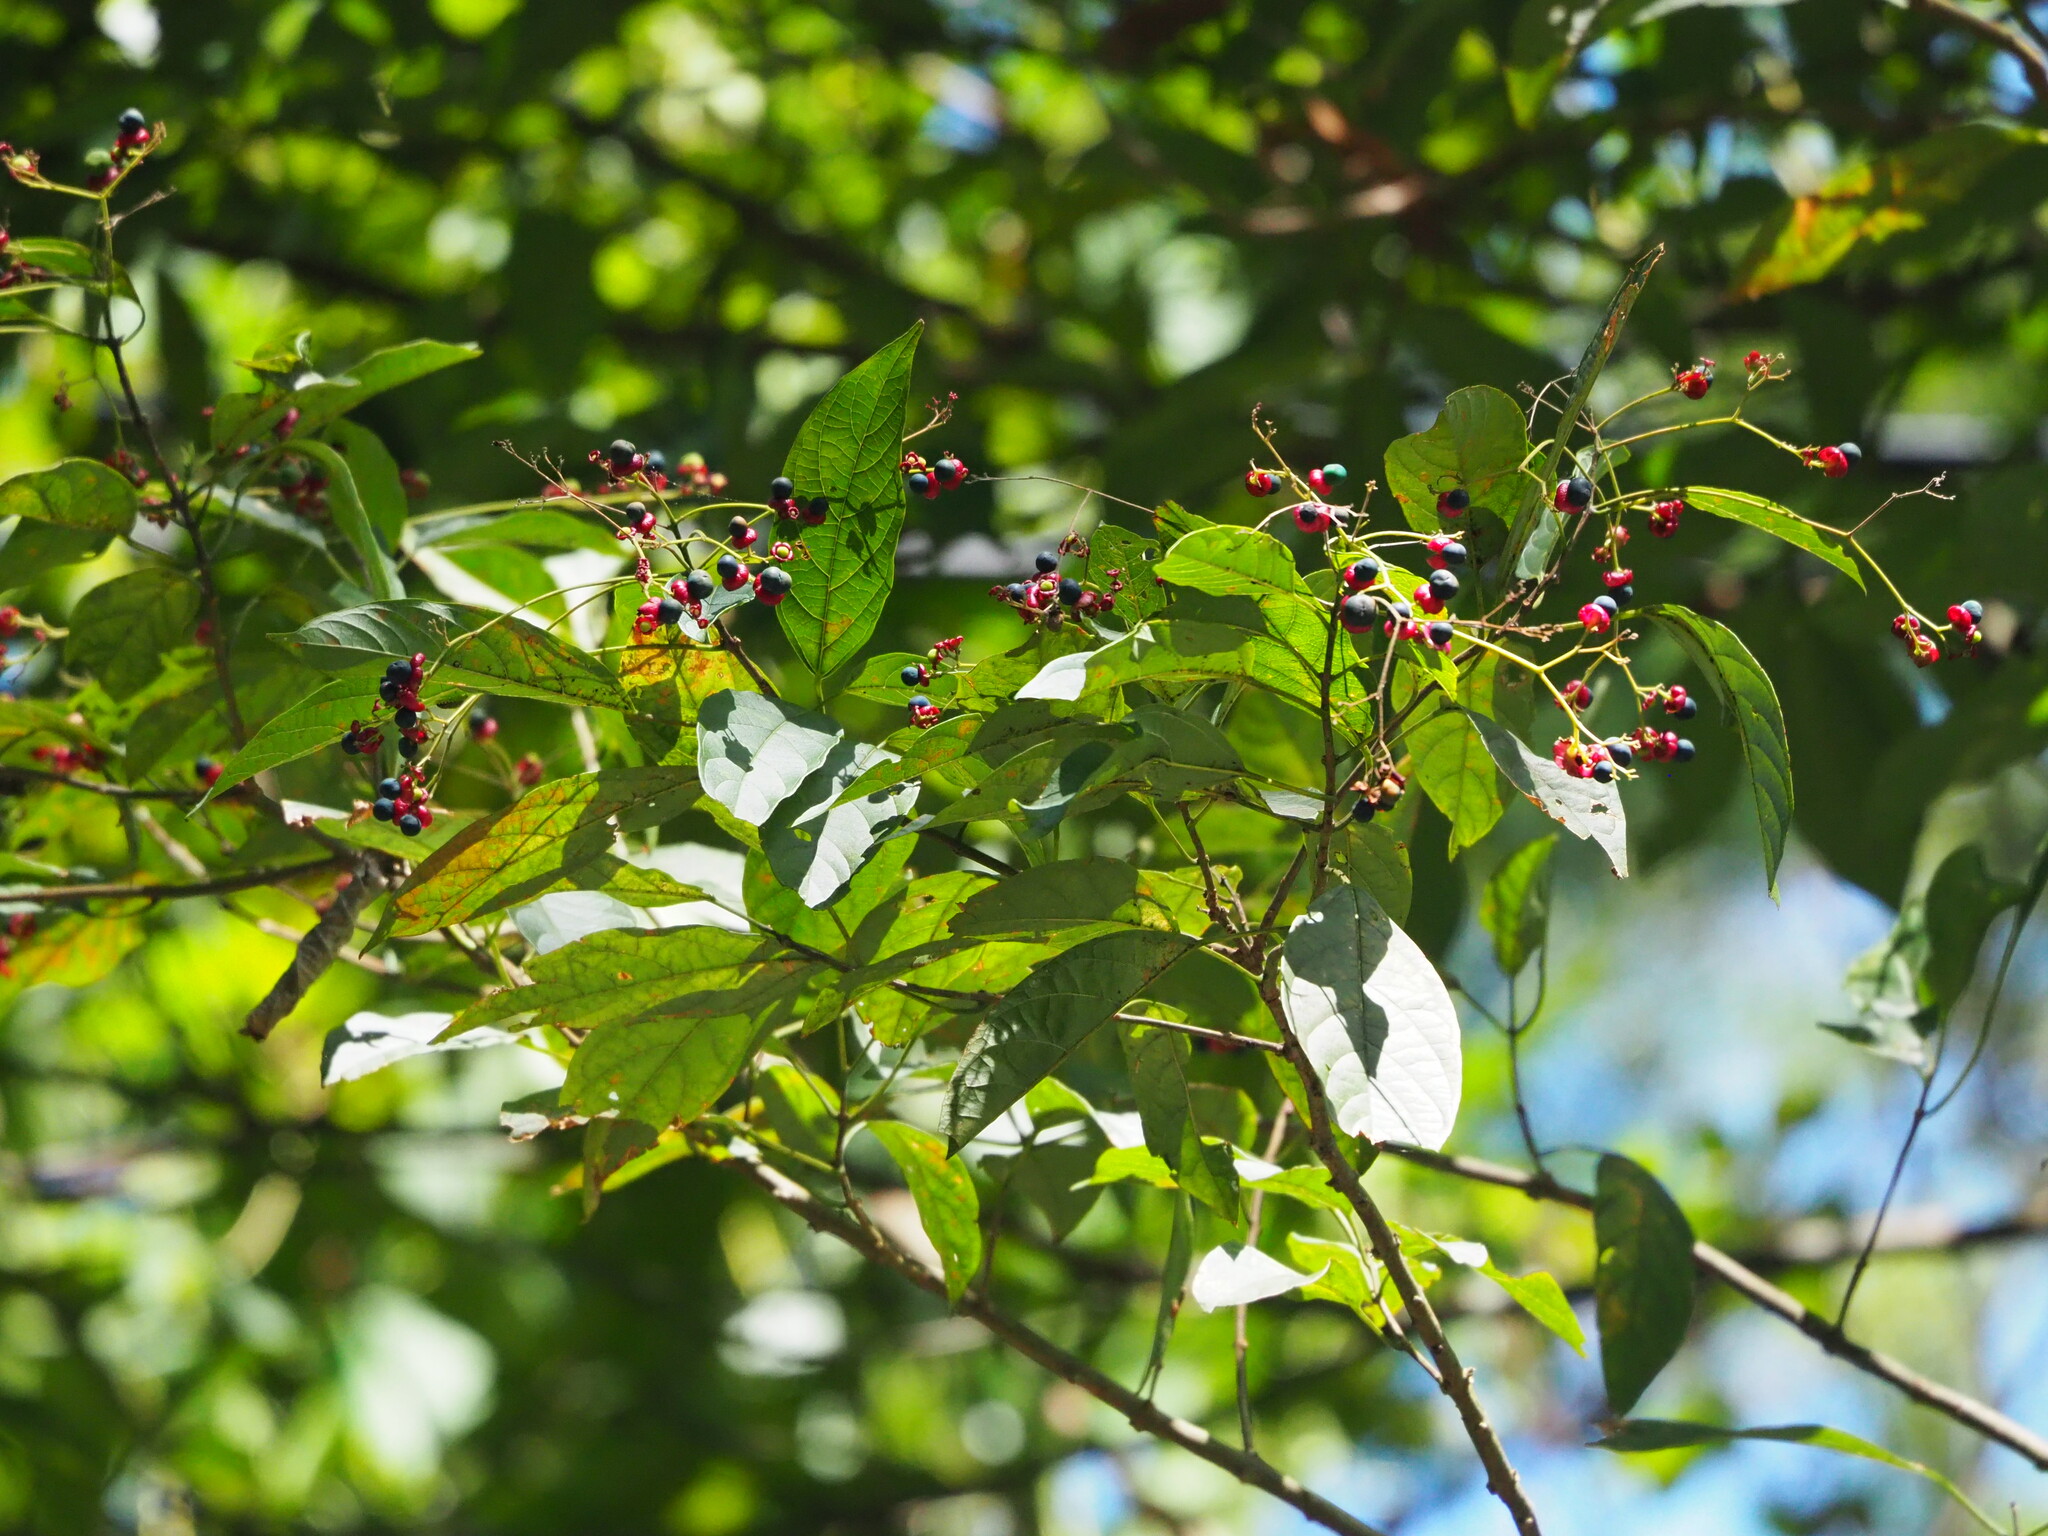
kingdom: Plantae
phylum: Tracheophyta
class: Magnoliopsida
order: Lamiales
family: Lamiaceae
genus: Clerodendrum
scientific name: Clerodendrum cyrtophyllum
